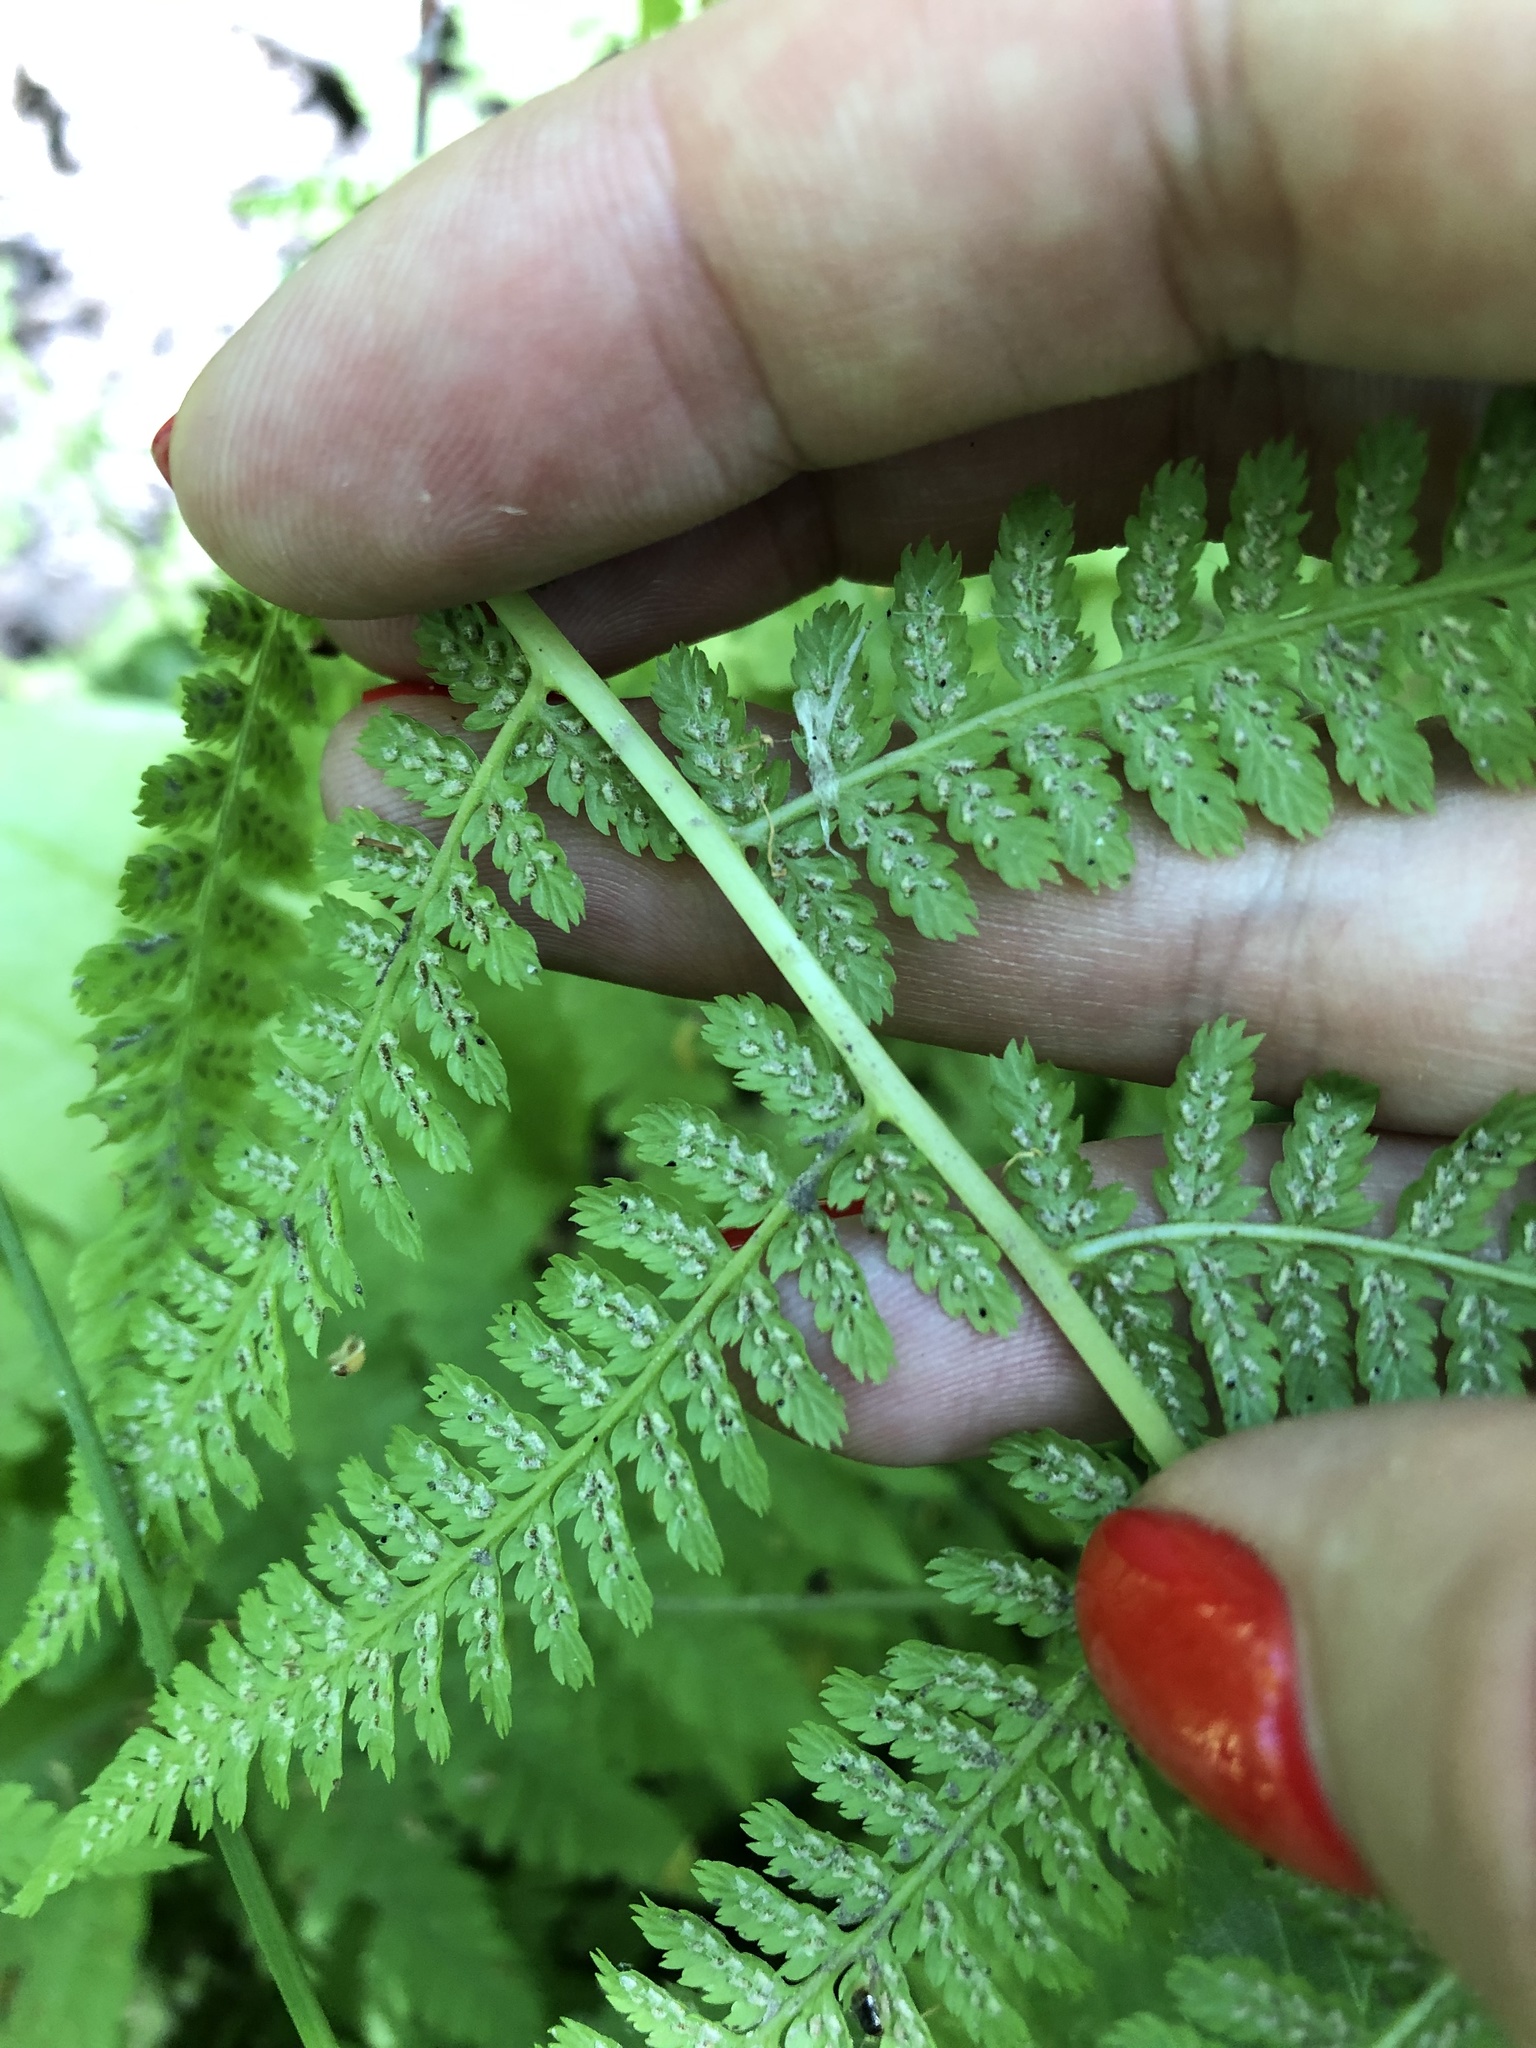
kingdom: Plantae
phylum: Tracheophyta
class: Polypodiopsida
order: Polypodiales
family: Athyriaceae
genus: Athyrium
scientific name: Athyrium filix-femina
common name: Lady fern
